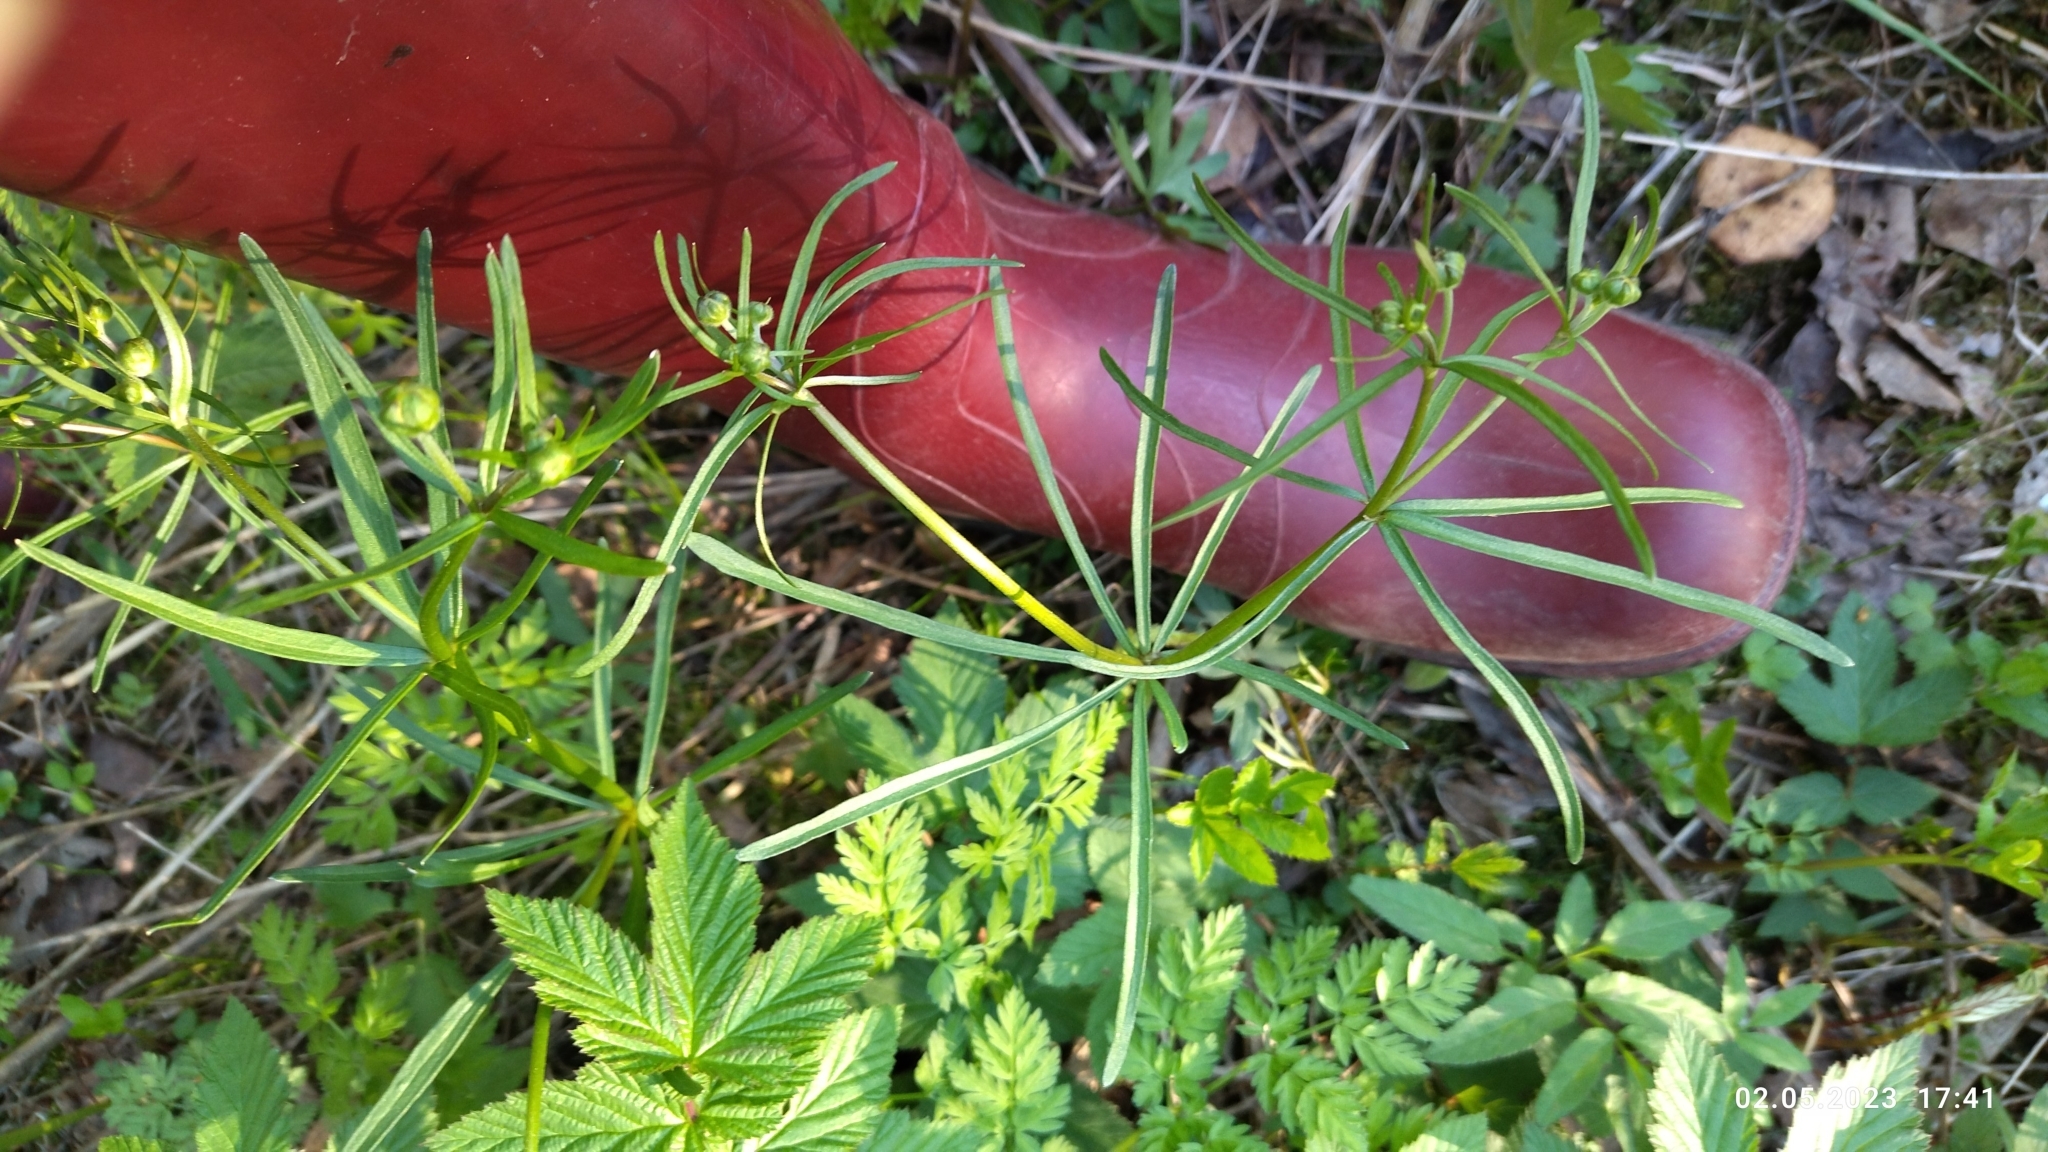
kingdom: Plantae
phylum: Tracheophyta
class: Magnoliopsida
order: Ranunculales
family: Ranunculaceae
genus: Ranunculus
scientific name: Ranunculus auricomus
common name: Goldilocks buttercup
